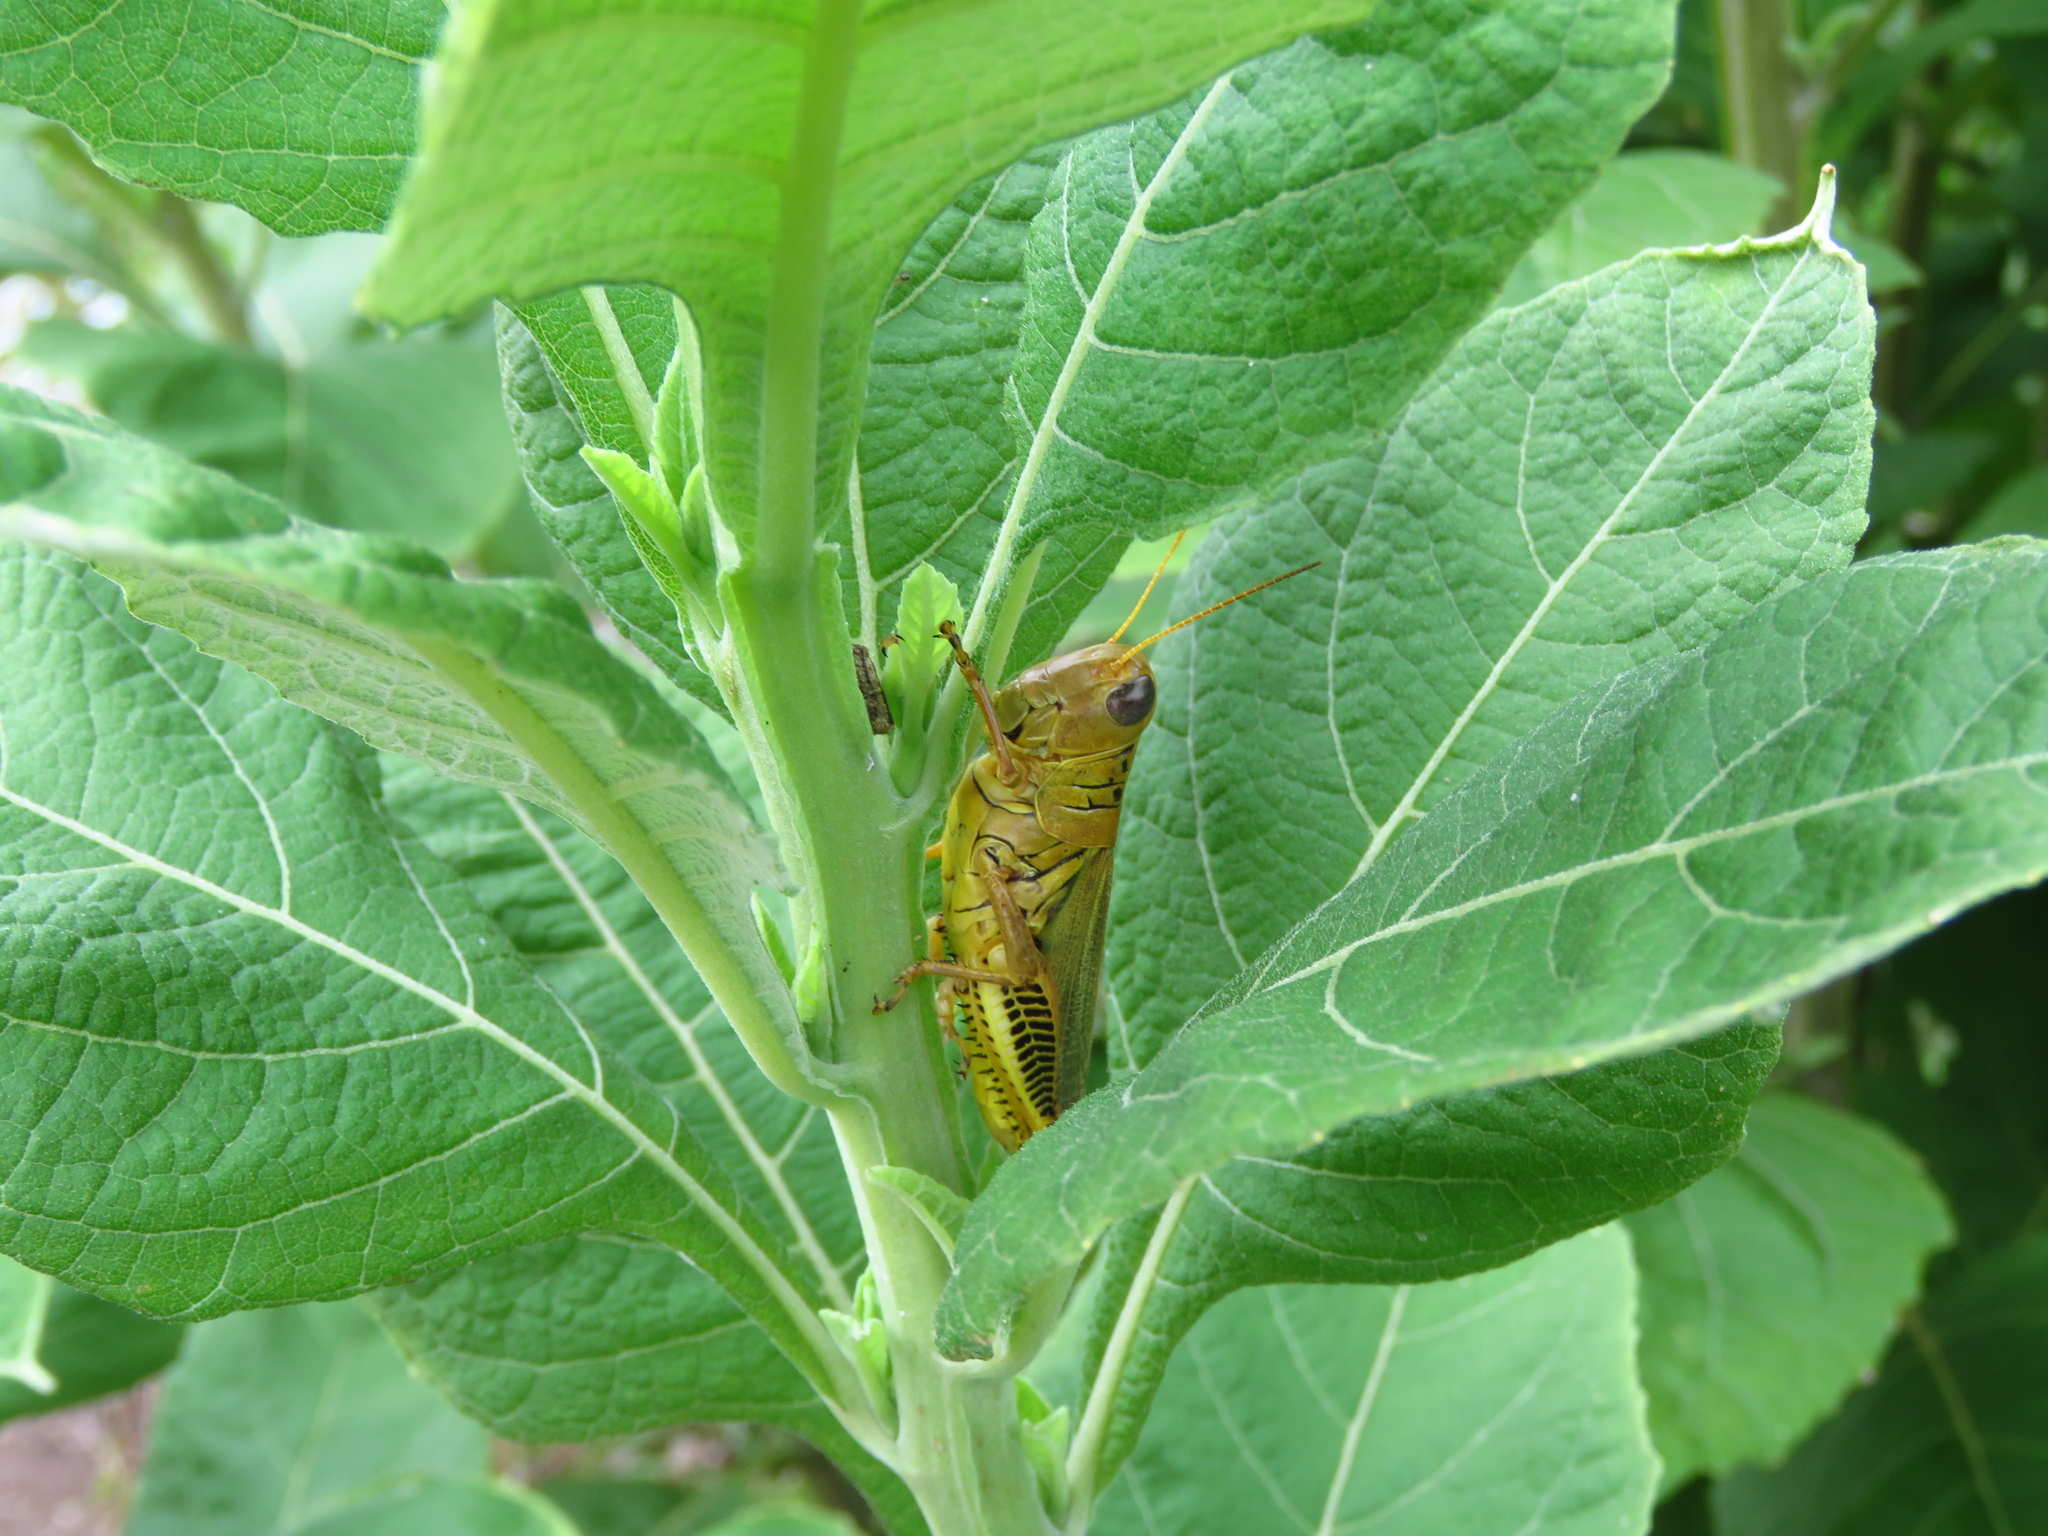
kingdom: Animalia
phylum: Arthropoda
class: Insecta
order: Orthoptera
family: Acrididae
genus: Melanoplus
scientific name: Melanoplus differentialis
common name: Differential grasshopper
